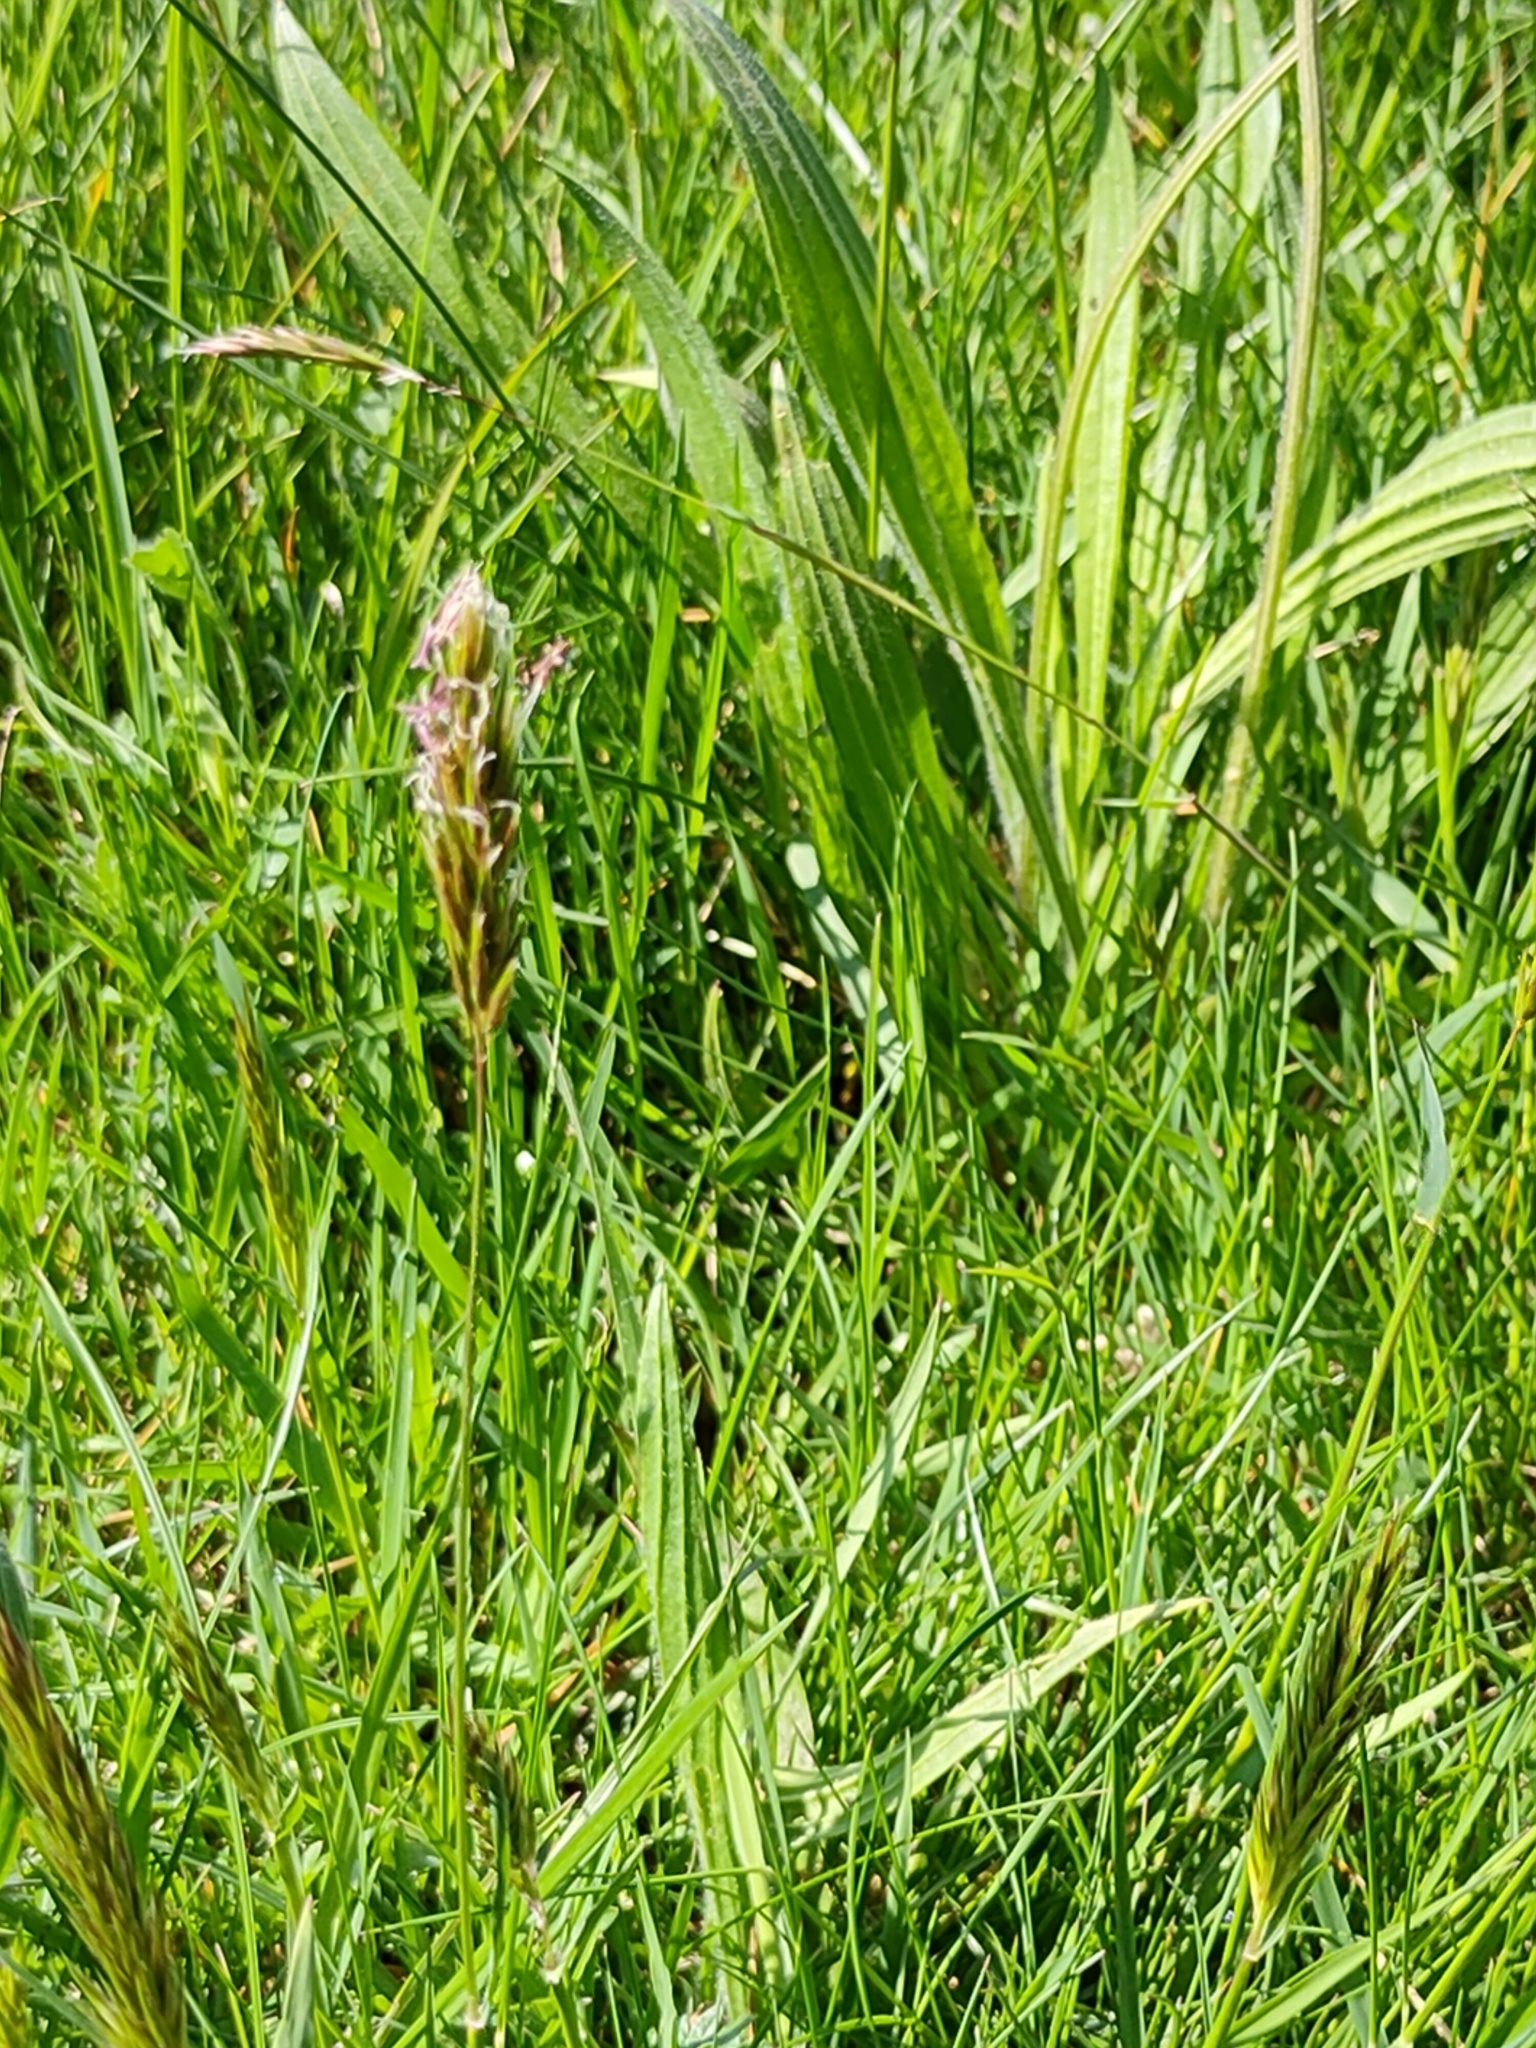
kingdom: Plantae
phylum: Tracheophyta
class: Liliopsida
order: Poales
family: Poaceae
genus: Anthoxanthum
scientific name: Anthoxanthum odoratum
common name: Sweet vernalgrass
